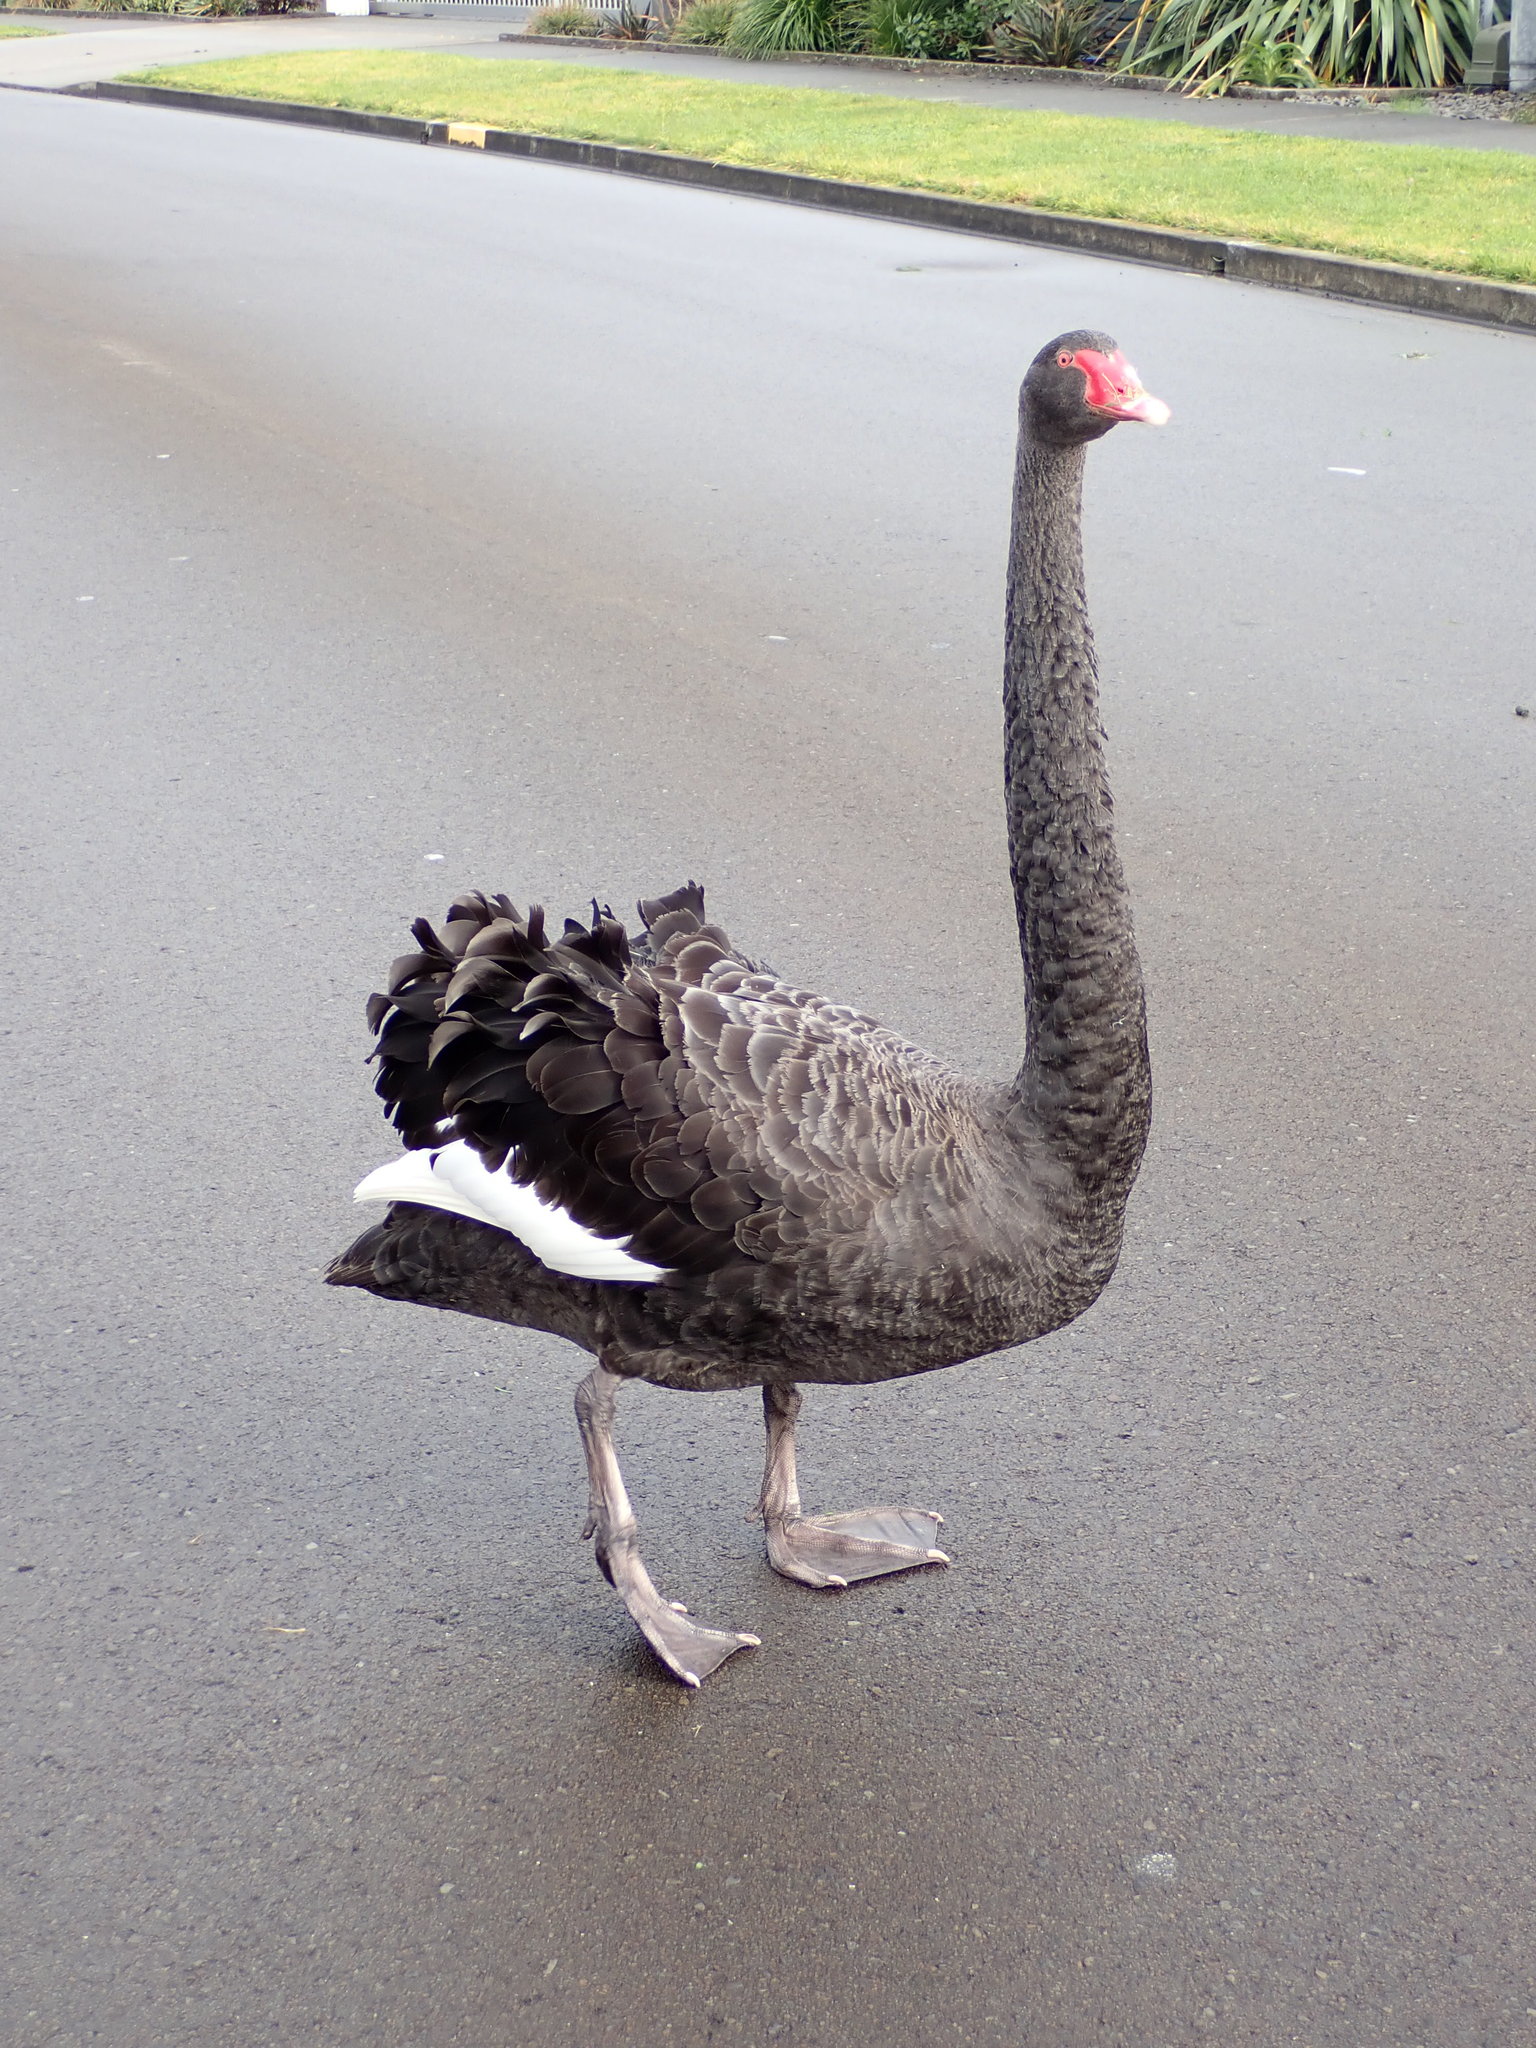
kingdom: Animalia
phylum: Chordata
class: Aves
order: Anseriformes
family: Anatidae
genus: Cygnus
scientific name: Cygnus atratus
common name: Black swan
